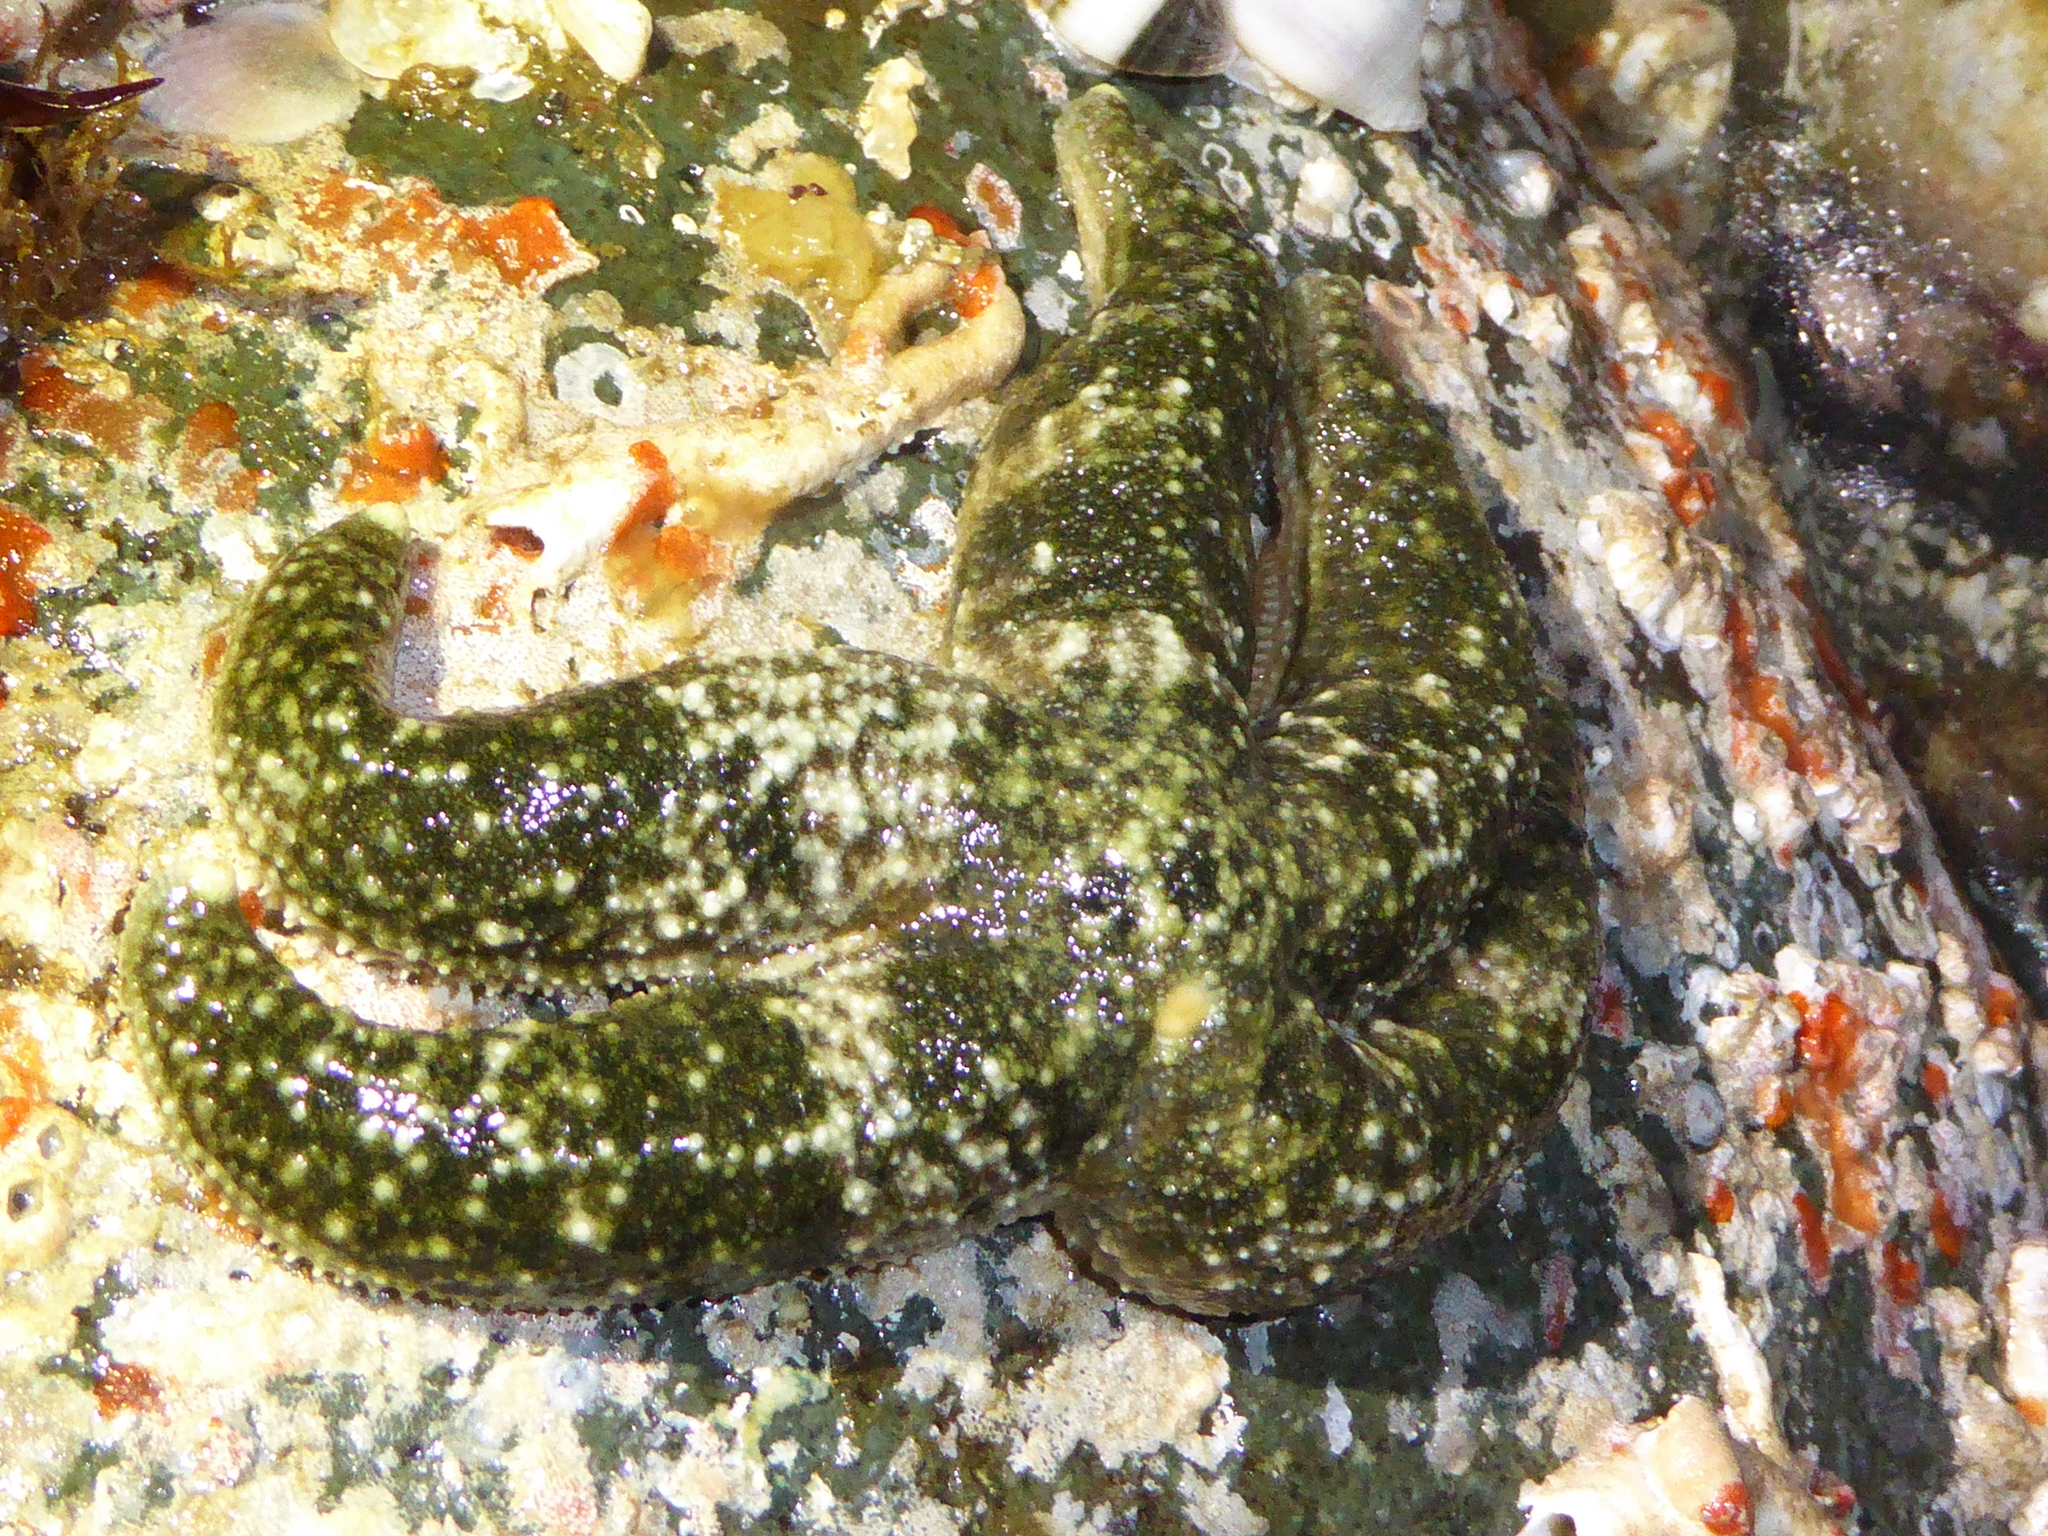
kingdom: Animalia
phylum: Echinodermata
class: Asteroidea
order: Forcipulatida
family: Asteriidae
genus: Evasterias
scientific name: Evasterias troschelii
